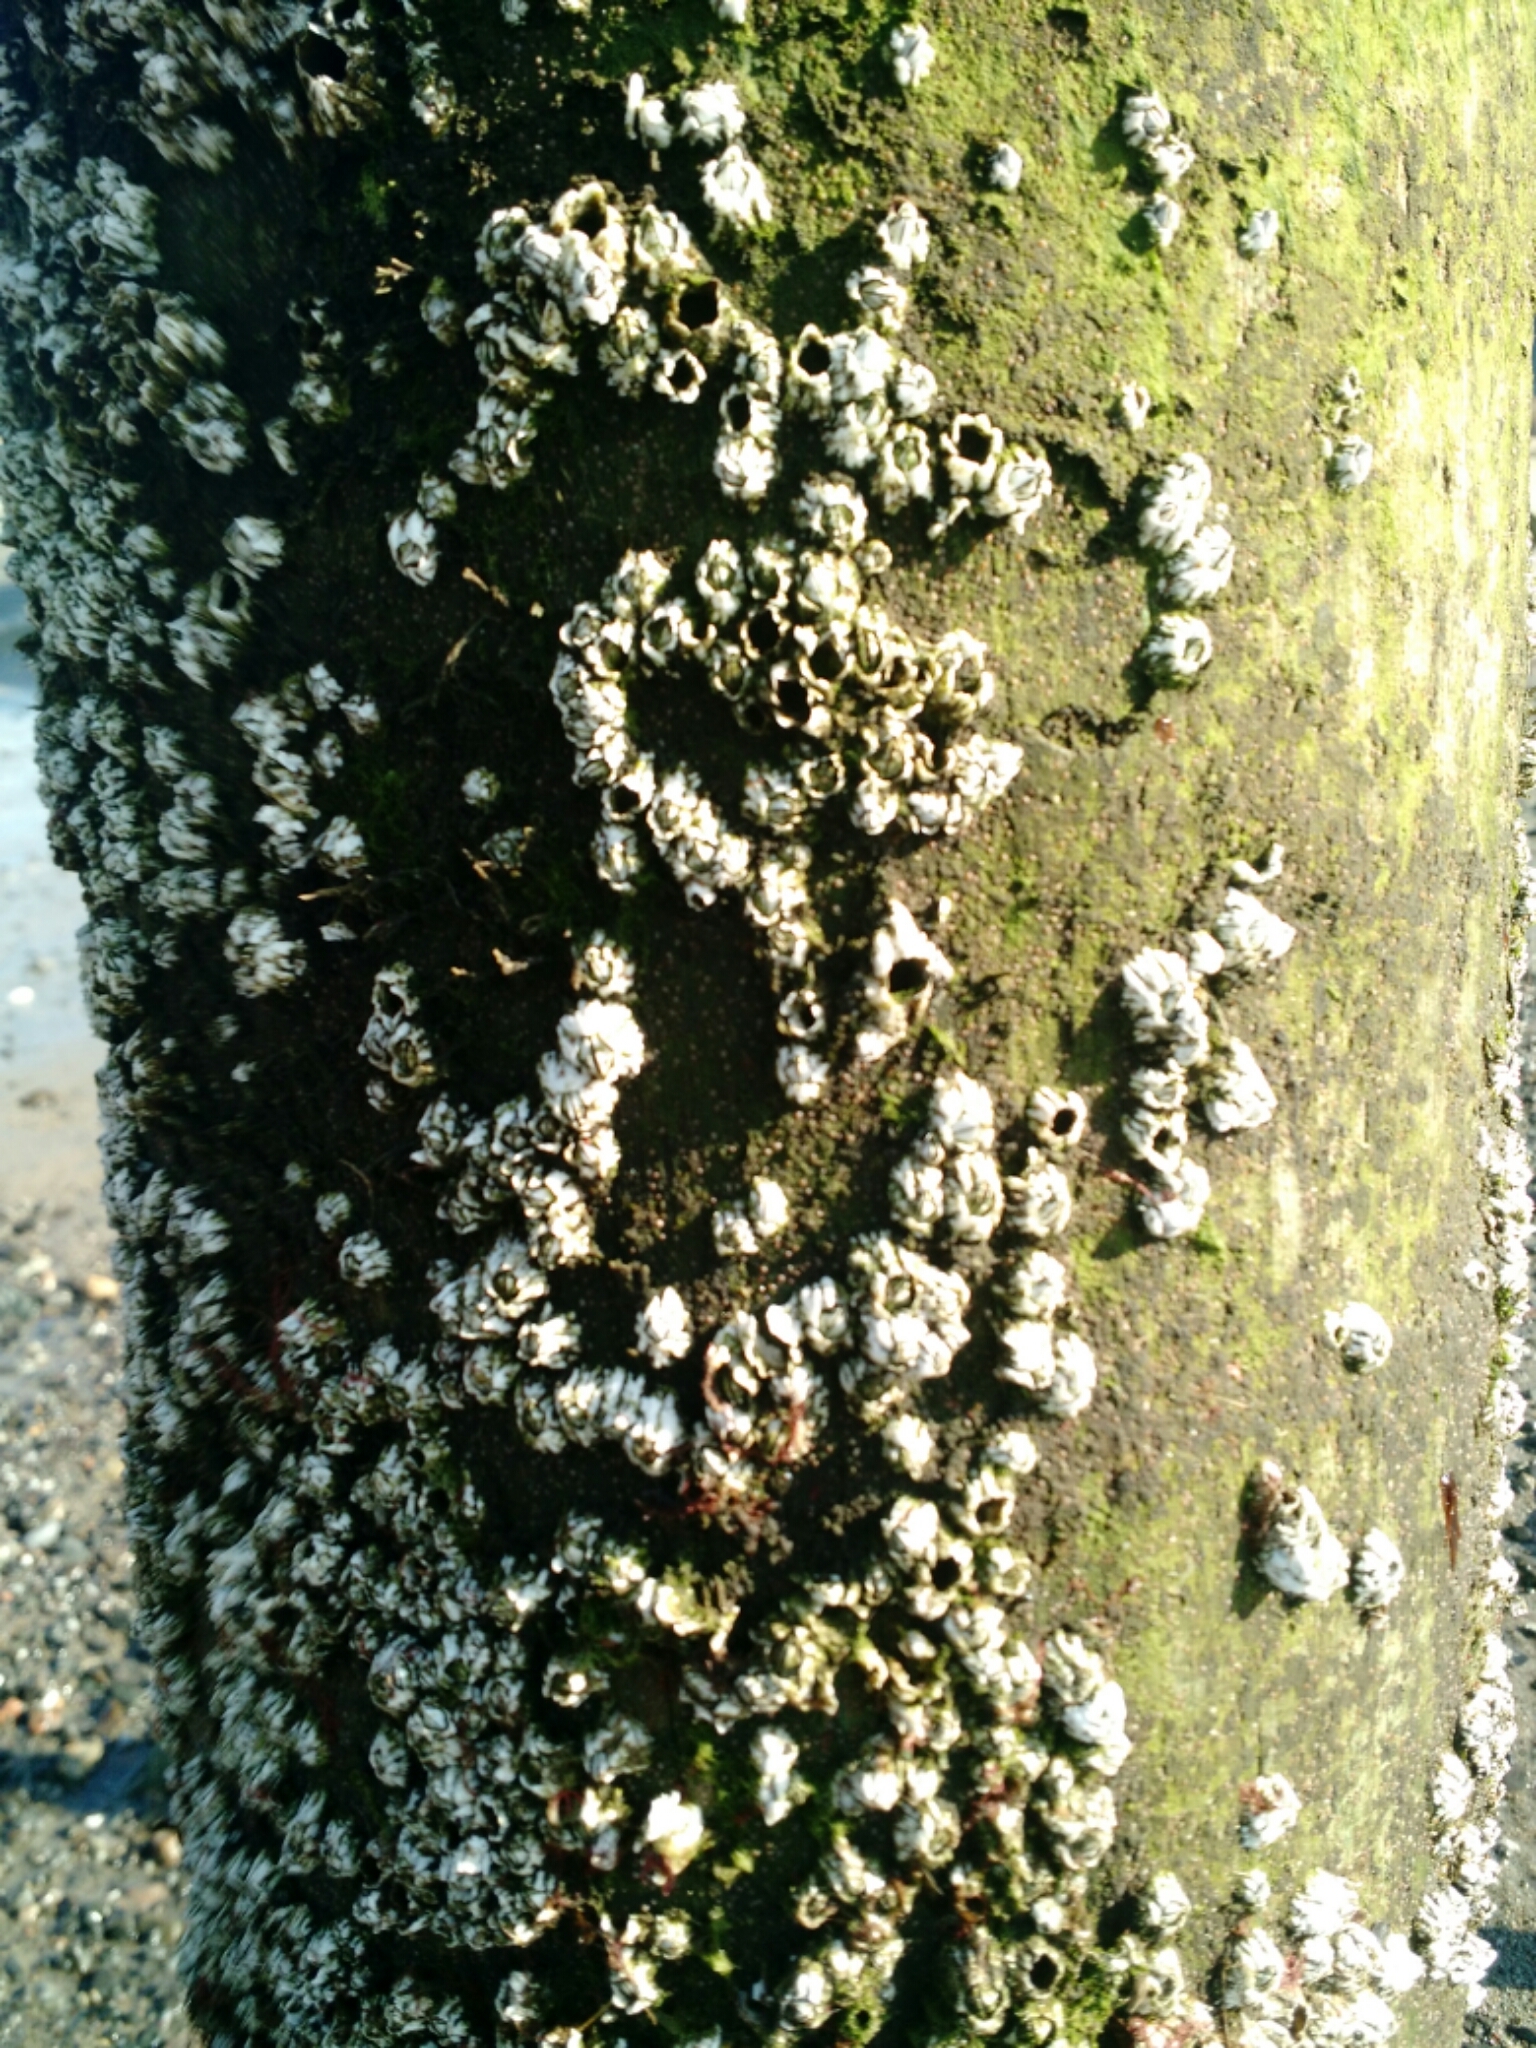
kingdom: Animalia
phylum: Arthropoda
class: Maxillopoda
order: Sessilia
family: Archaeobalanidae
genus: Semibalanus
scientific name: Semibalanus balanoides
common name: Acorn barnacle
